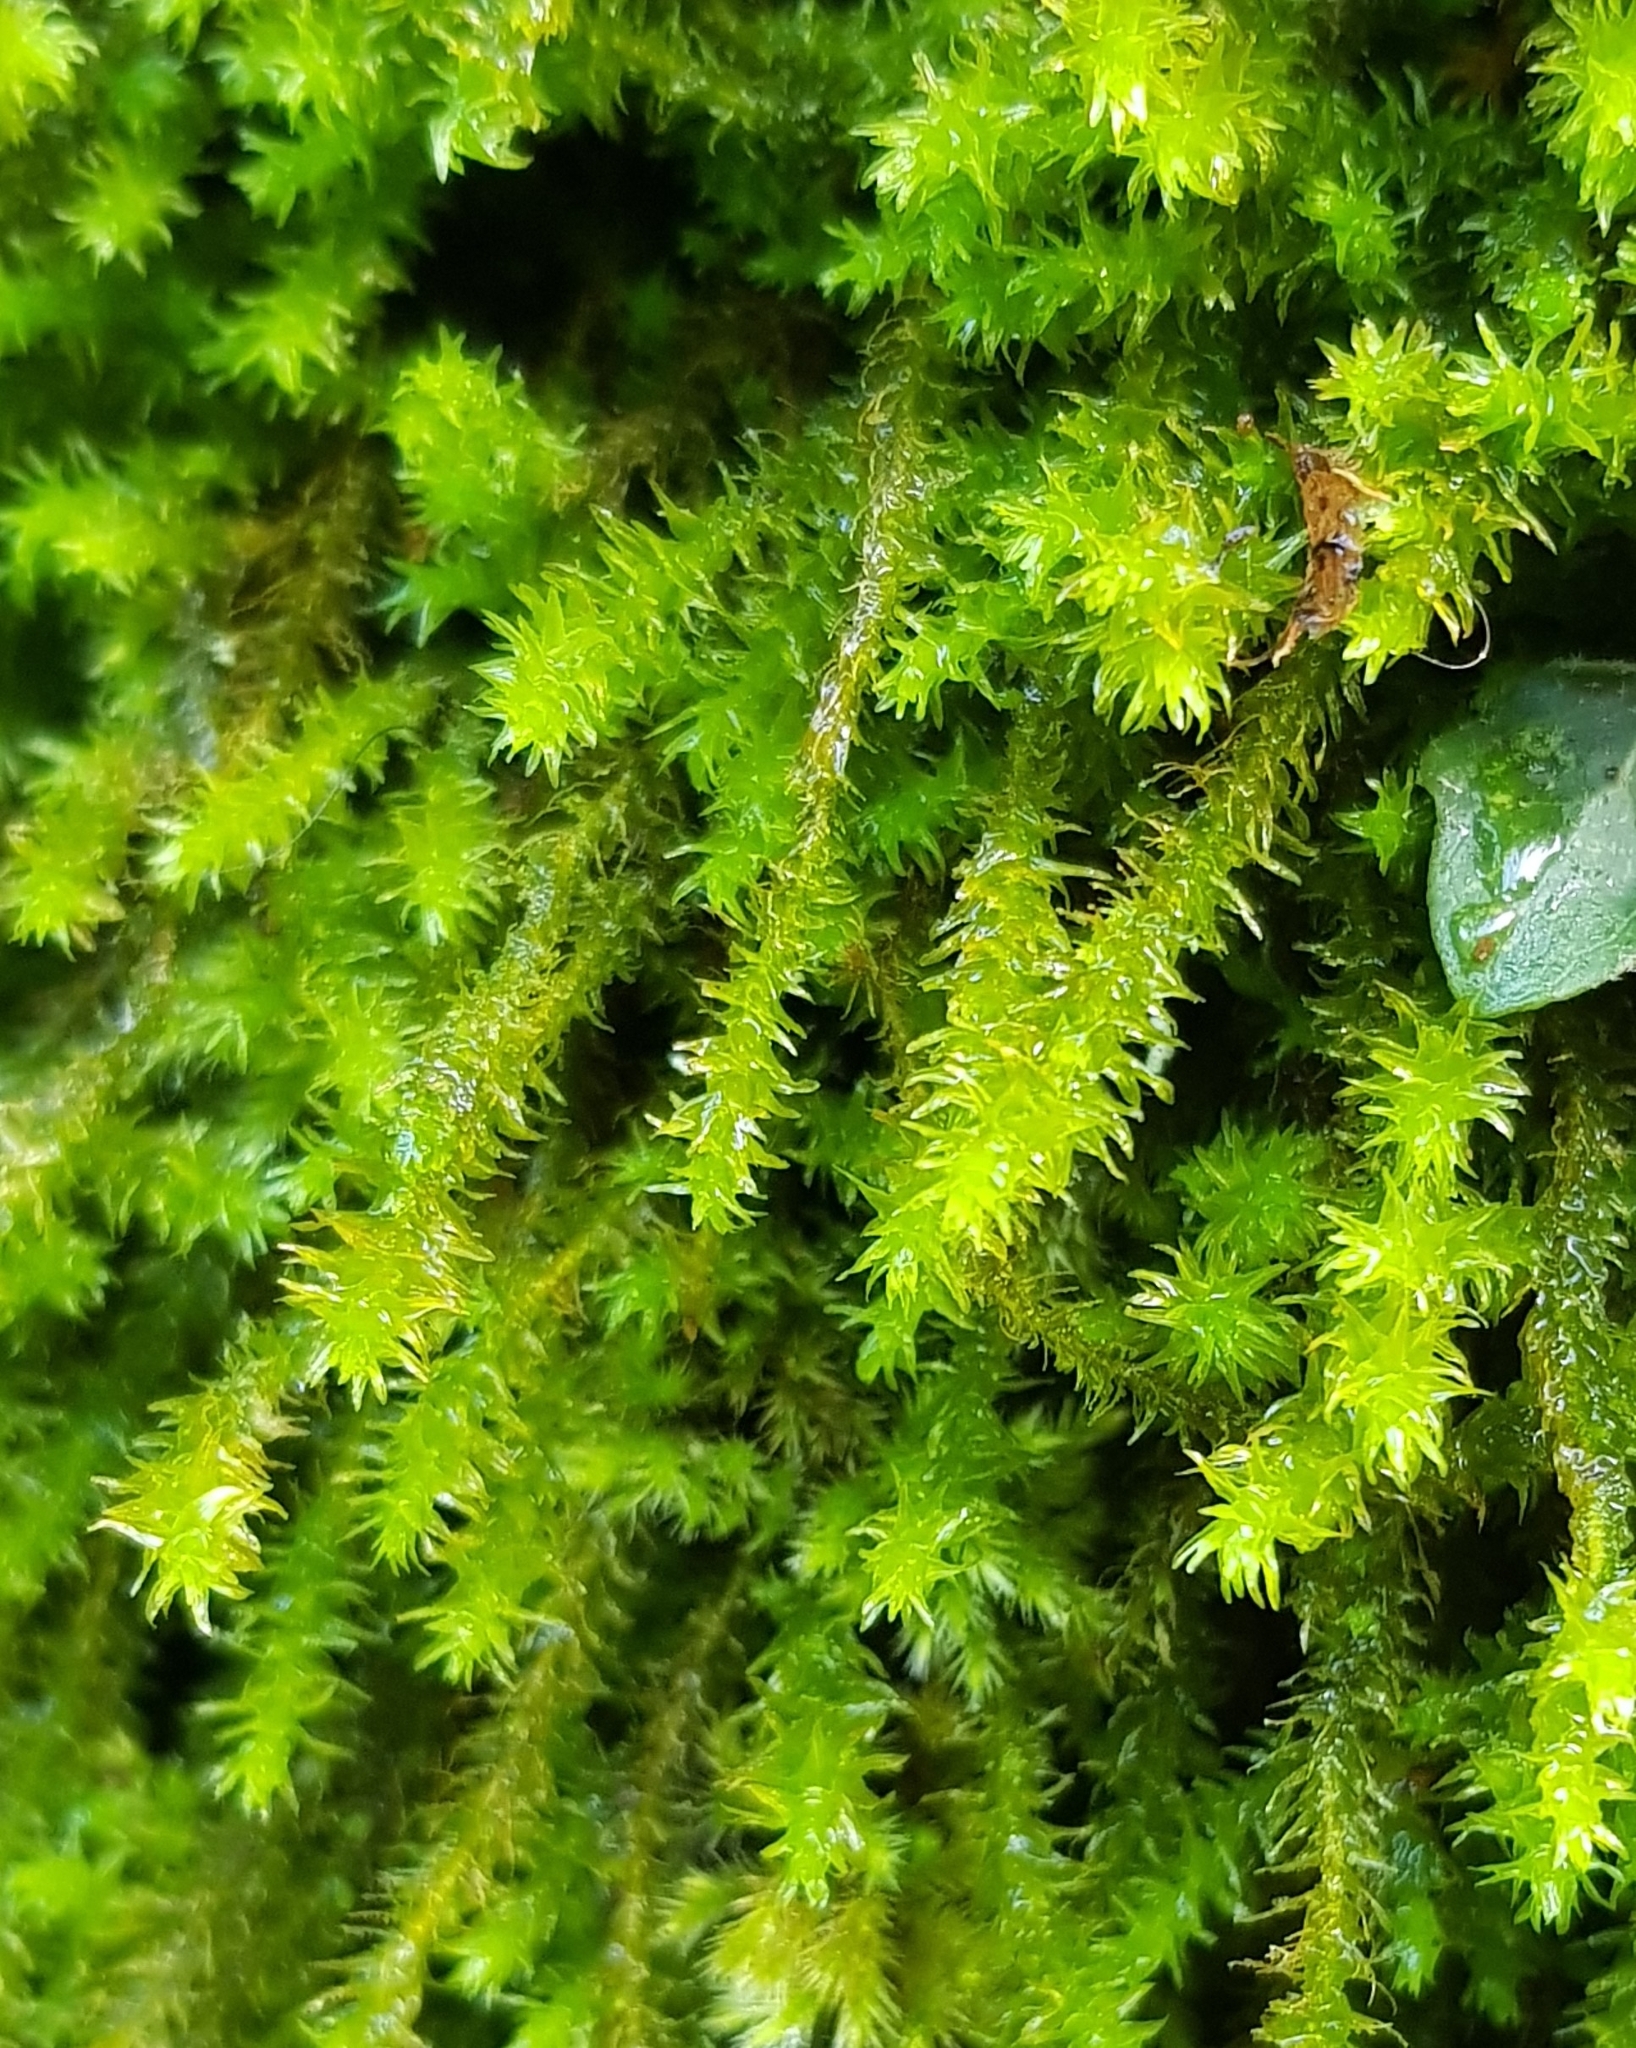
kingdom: Plantae
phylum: Bryophyta
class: Bryopsida
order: Hypnales
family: Anomodontaceae
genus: Anomodon
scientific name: Anomodon viticulosus
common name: Tall anomodon
